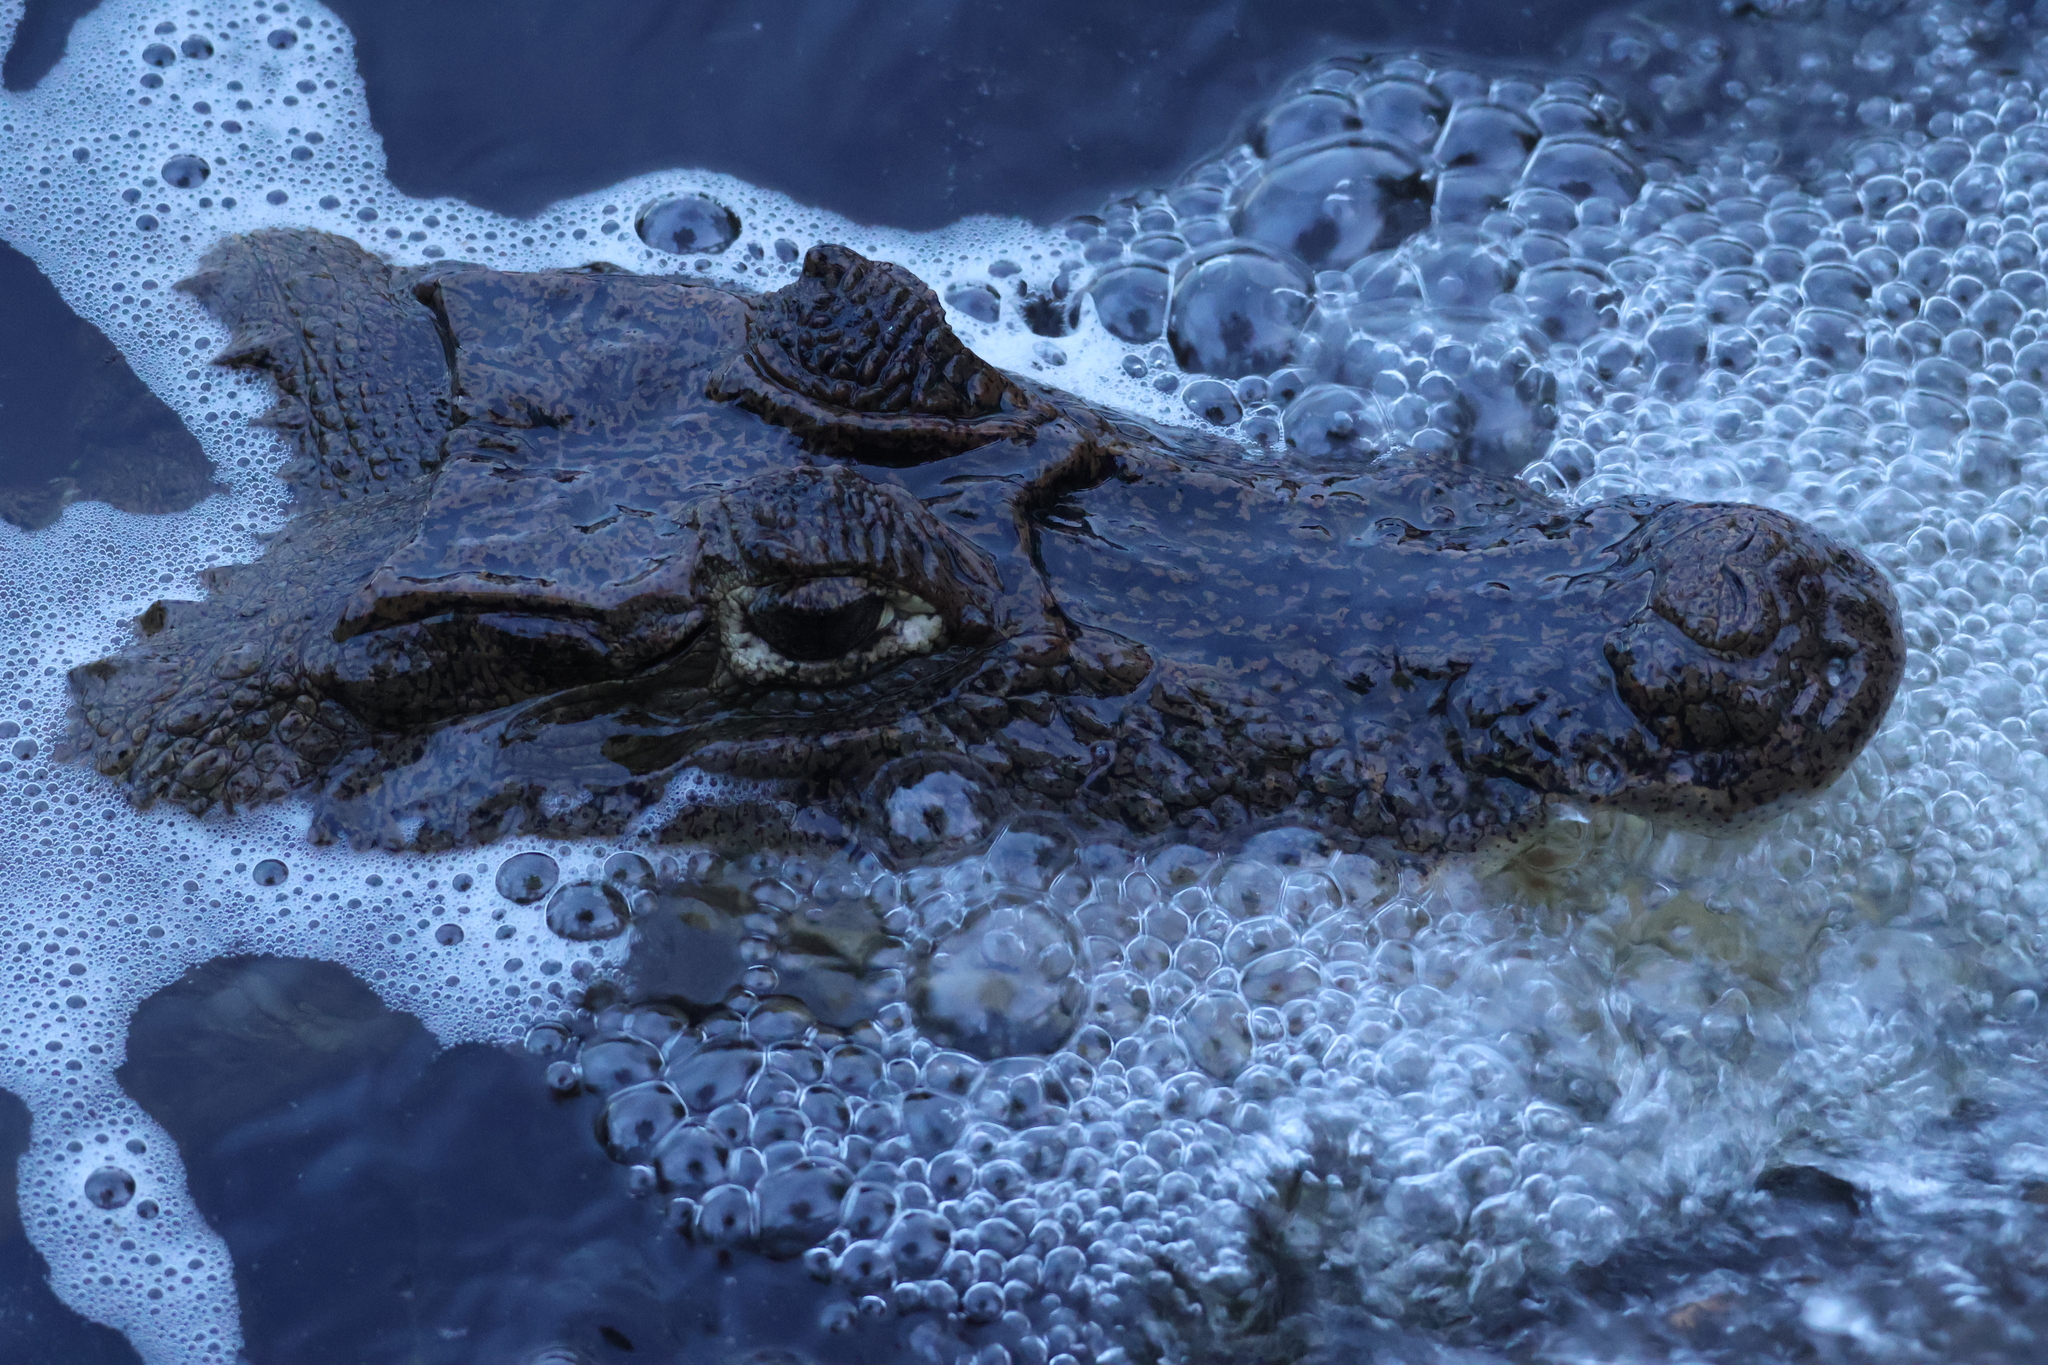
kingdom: Animalia
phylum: Chordata
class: Crocodylia
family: Alligatoridae
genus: Caiman
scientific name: Caiman crocodilus
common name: Common caiman
